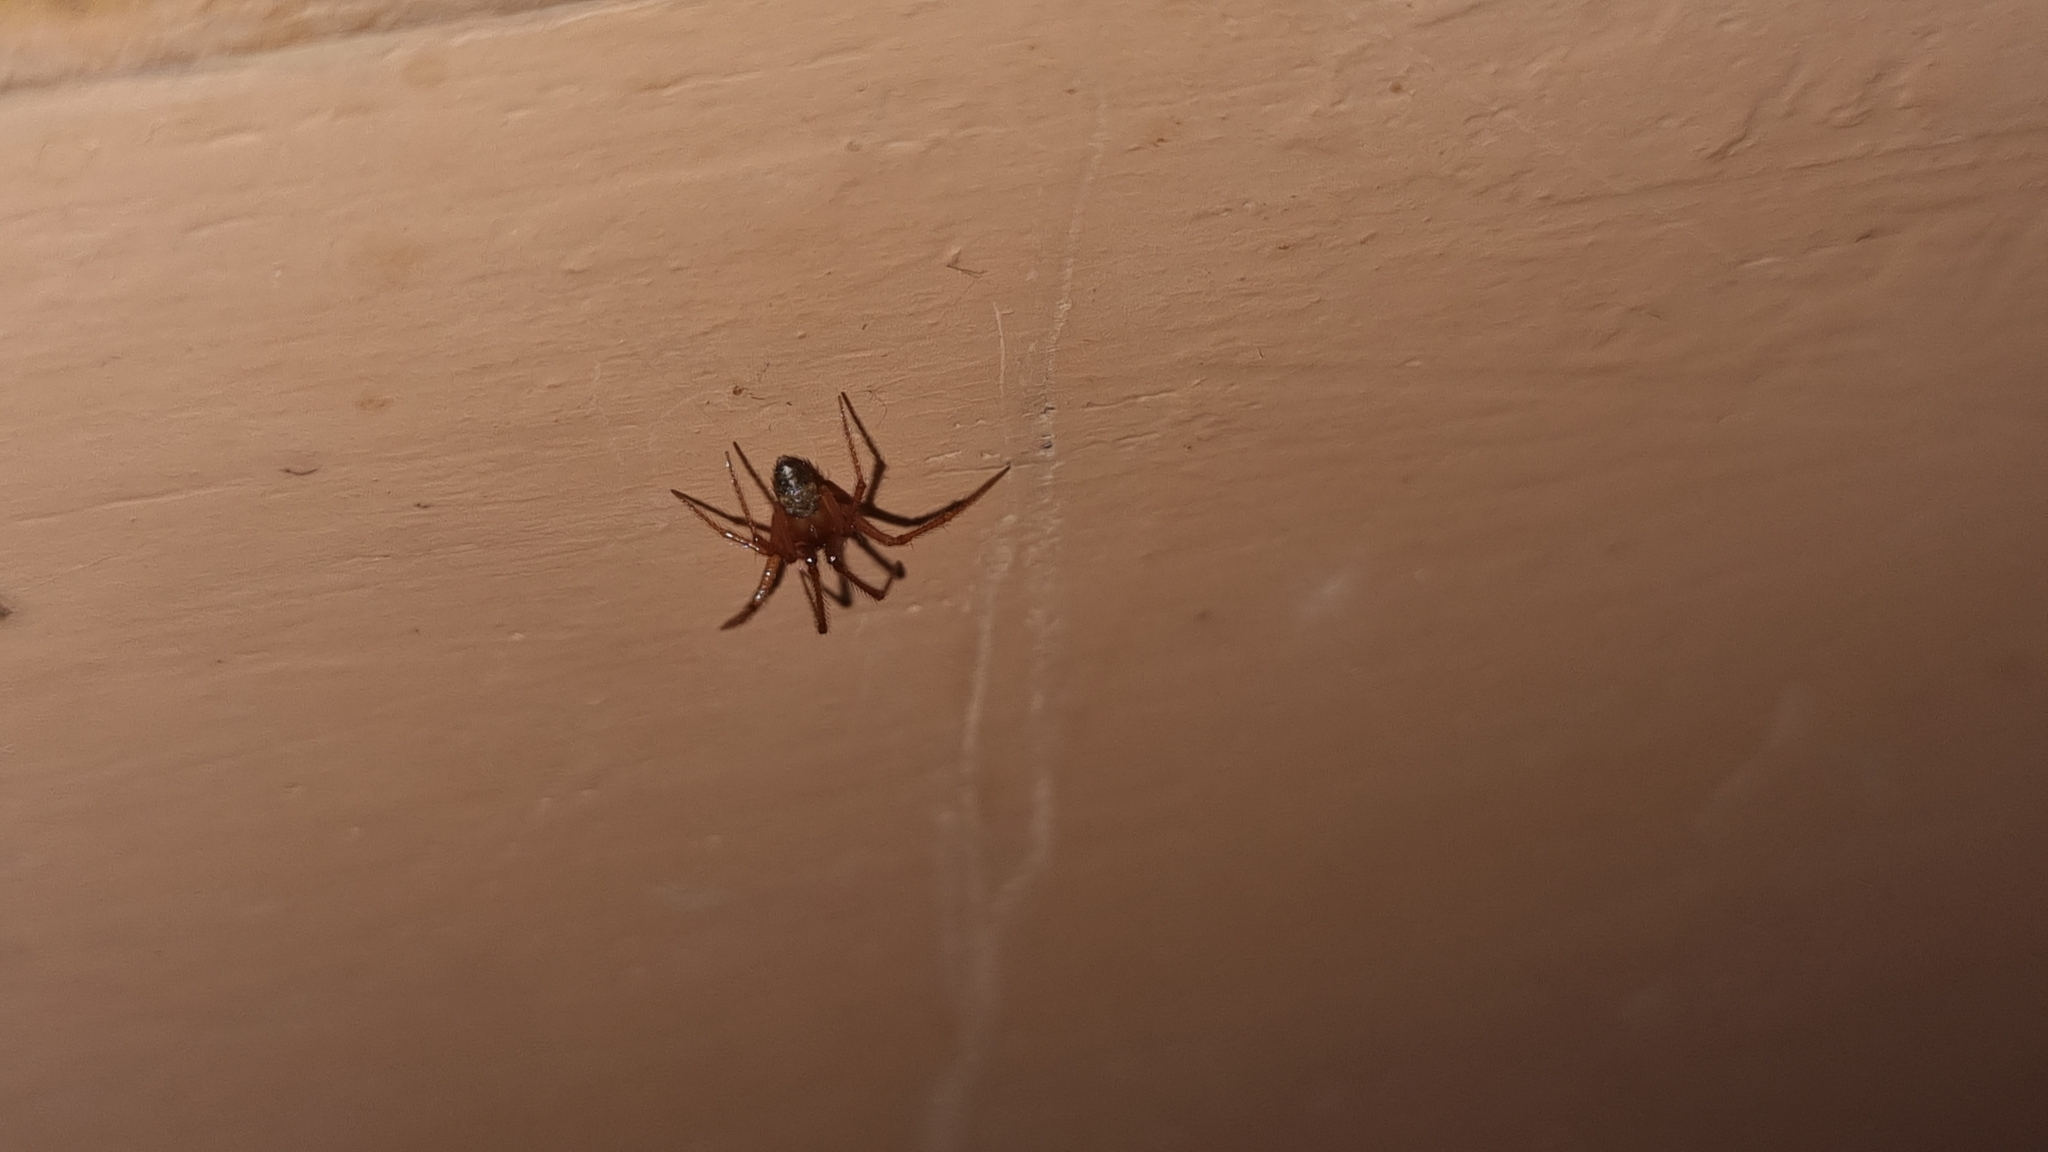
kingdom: Animalia
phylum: Arthropoda
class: Arachnida
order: Araneae
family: Theridiidae
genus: Nesticodes
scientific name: Nesticodes rufipes
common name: Cobweb spiders
